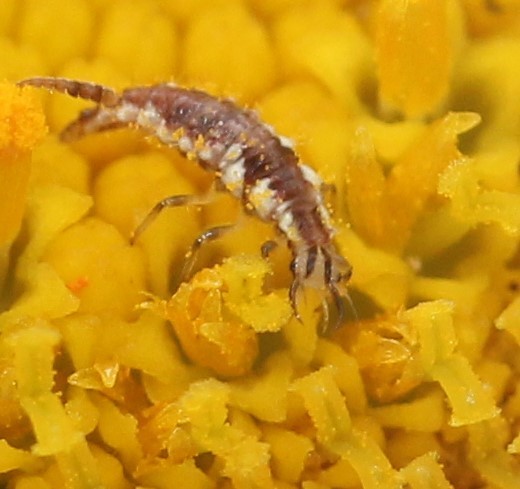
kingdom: Animalia
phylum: Arthropoda
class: Insecta
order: Neuroptera
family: Chrysopidae
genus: Chrysoperla
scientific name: Chrysoperla rufilabris
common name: Red-lipped green lacewing
